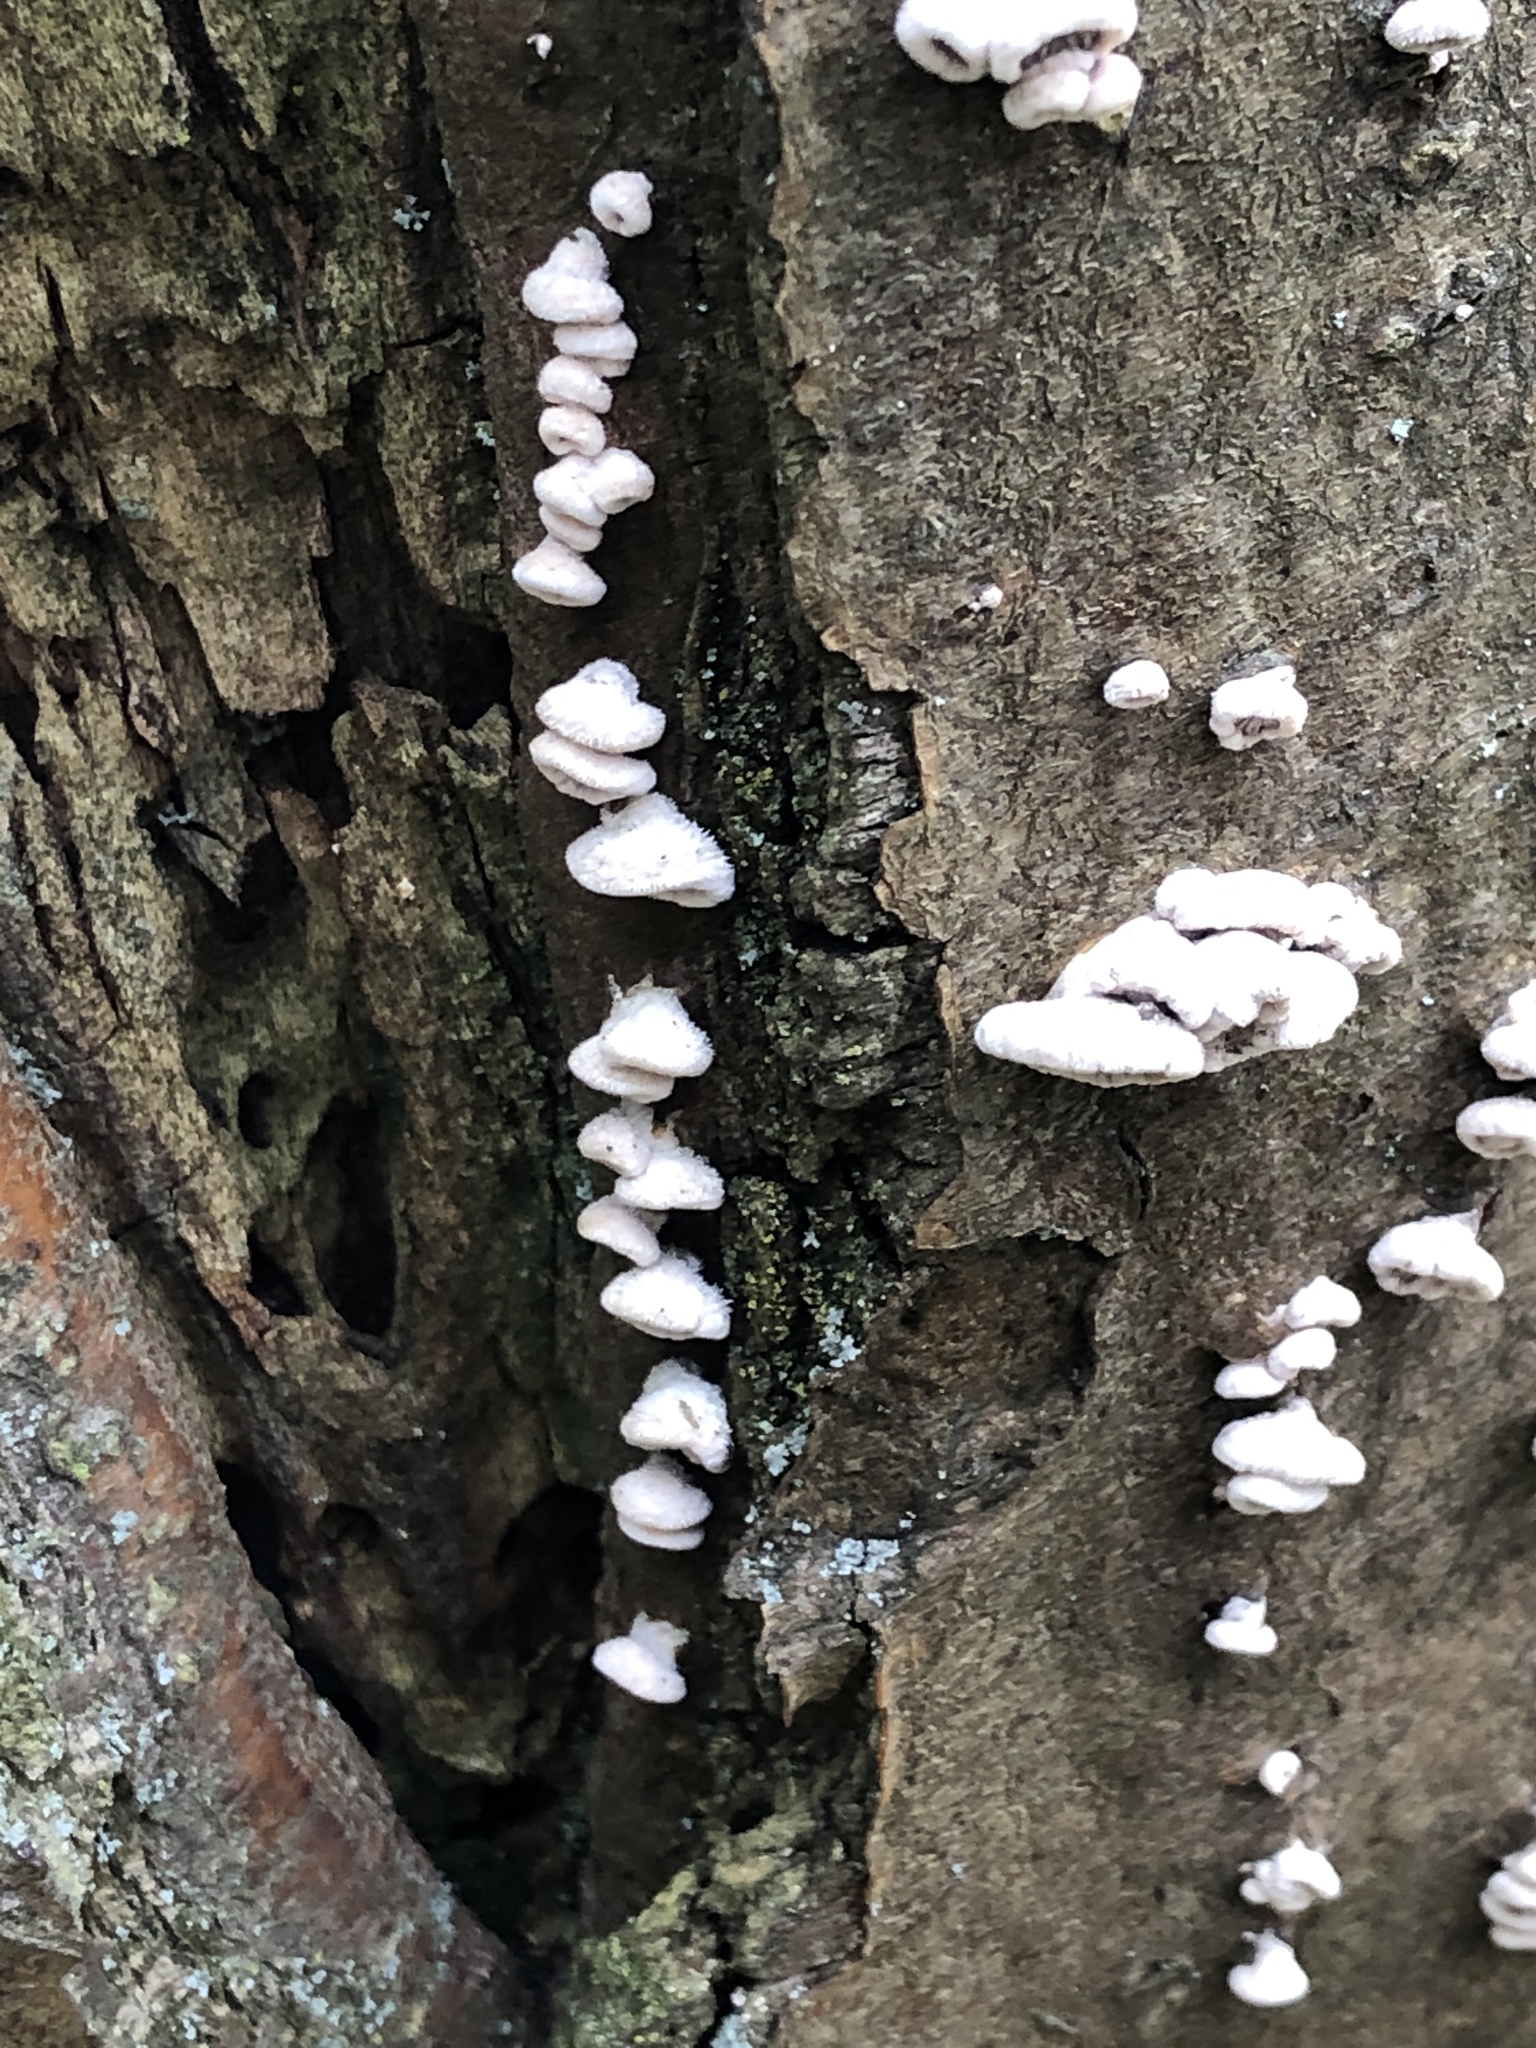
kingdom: Fungi
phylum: Basidiomycota
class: Agaricomycetes
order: Agaricales
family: Schizophyllaceae
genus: Schizophyllum
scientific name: Schizophyllum commune
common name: Common porecrust
